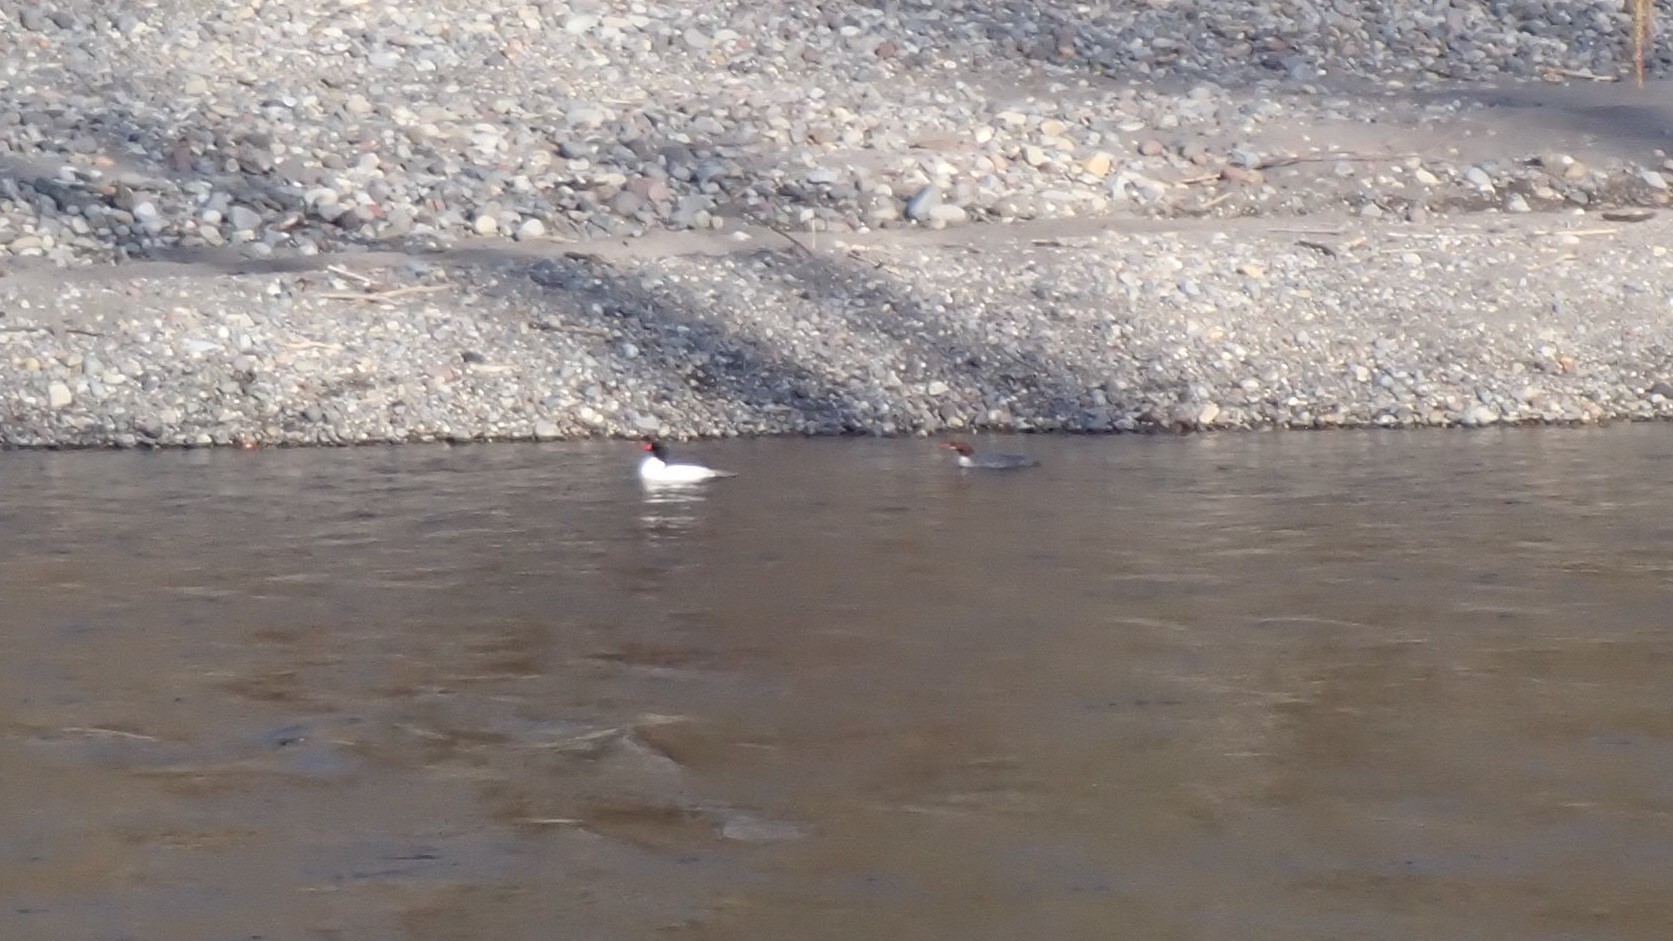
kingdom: Animalia
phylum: Chordata
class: Aves
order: Anseriformes
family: Anatidae
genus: Mergus
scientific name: Mergus merganser
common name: Common merganser
